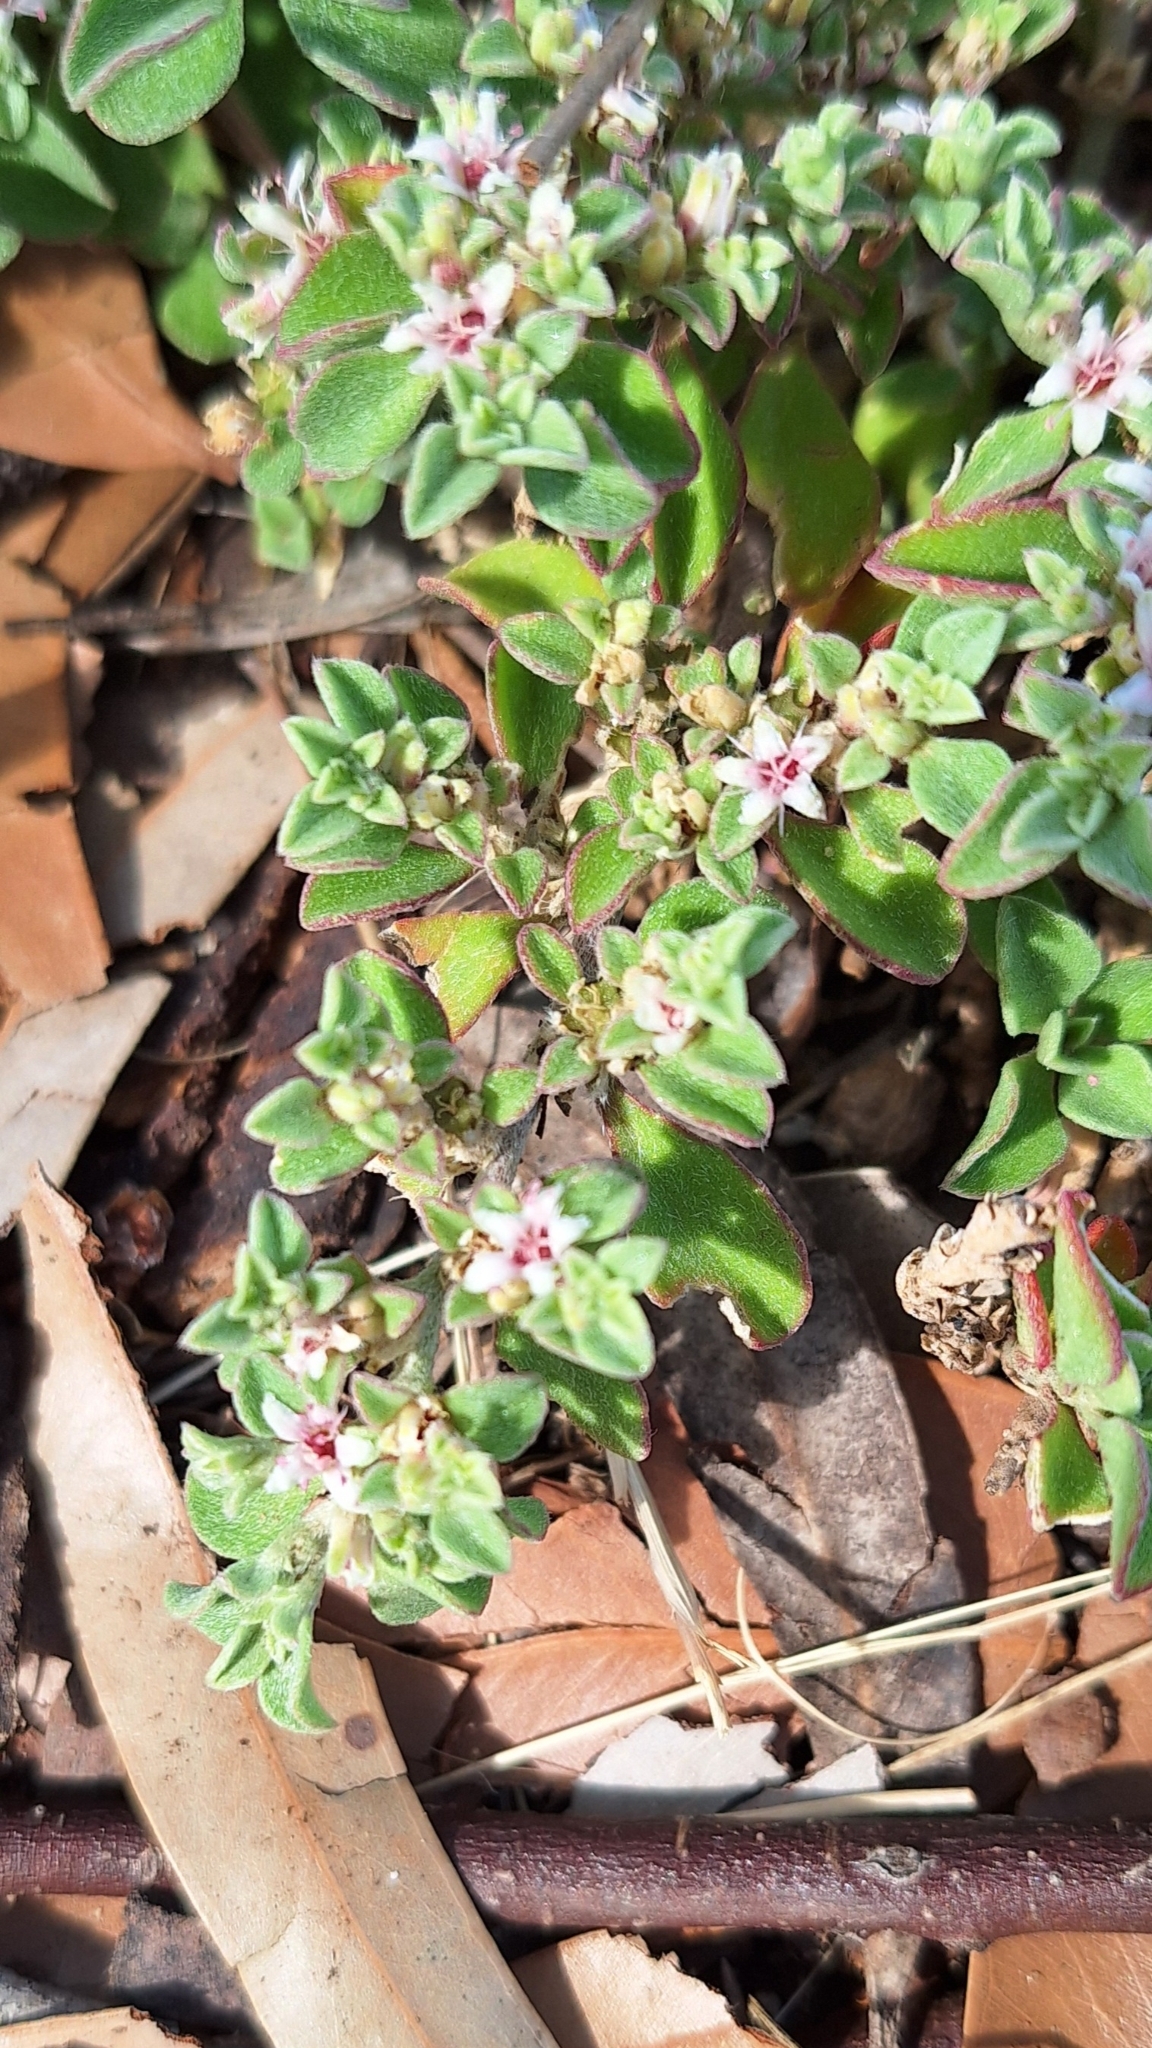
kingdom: Plantae
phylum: Tracheophyta
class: Magnoliopsida
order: Caryophyllales
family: Aizoaceae
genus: Aizoon
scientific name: Aizoon pubescens
